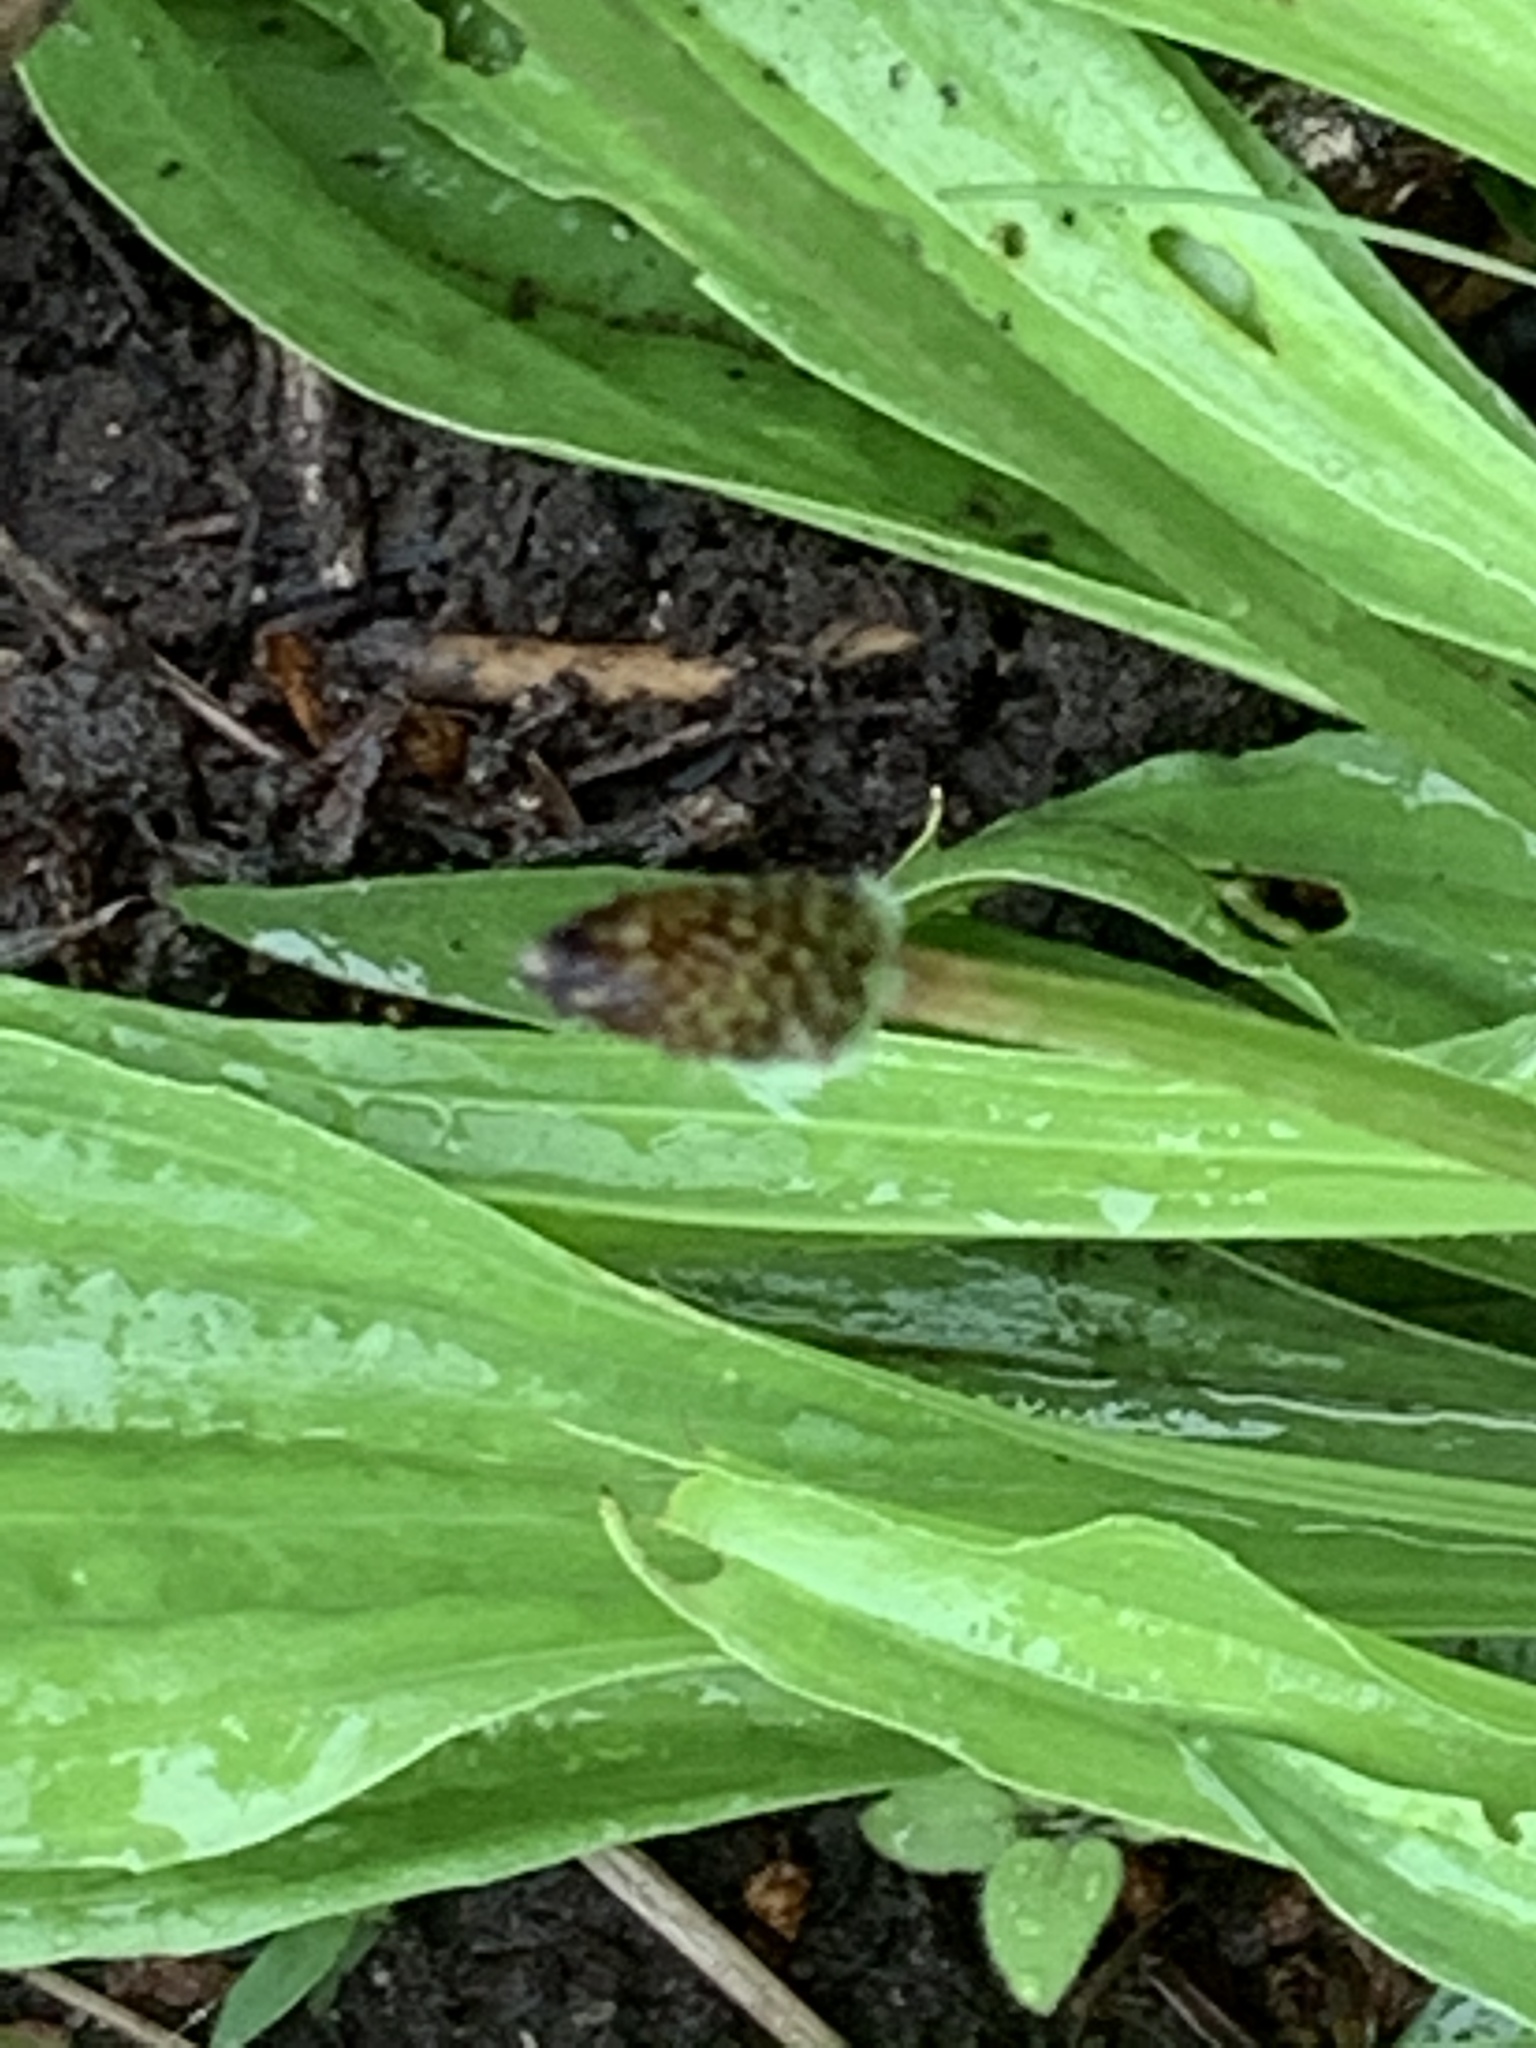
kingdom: Plantae
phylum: Tracheophyta
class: Magnoliopsida
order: Lamiales
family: Plantaginaceae
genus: Plantago
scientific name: Plantago lanceolata
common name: Ribwort plantain
